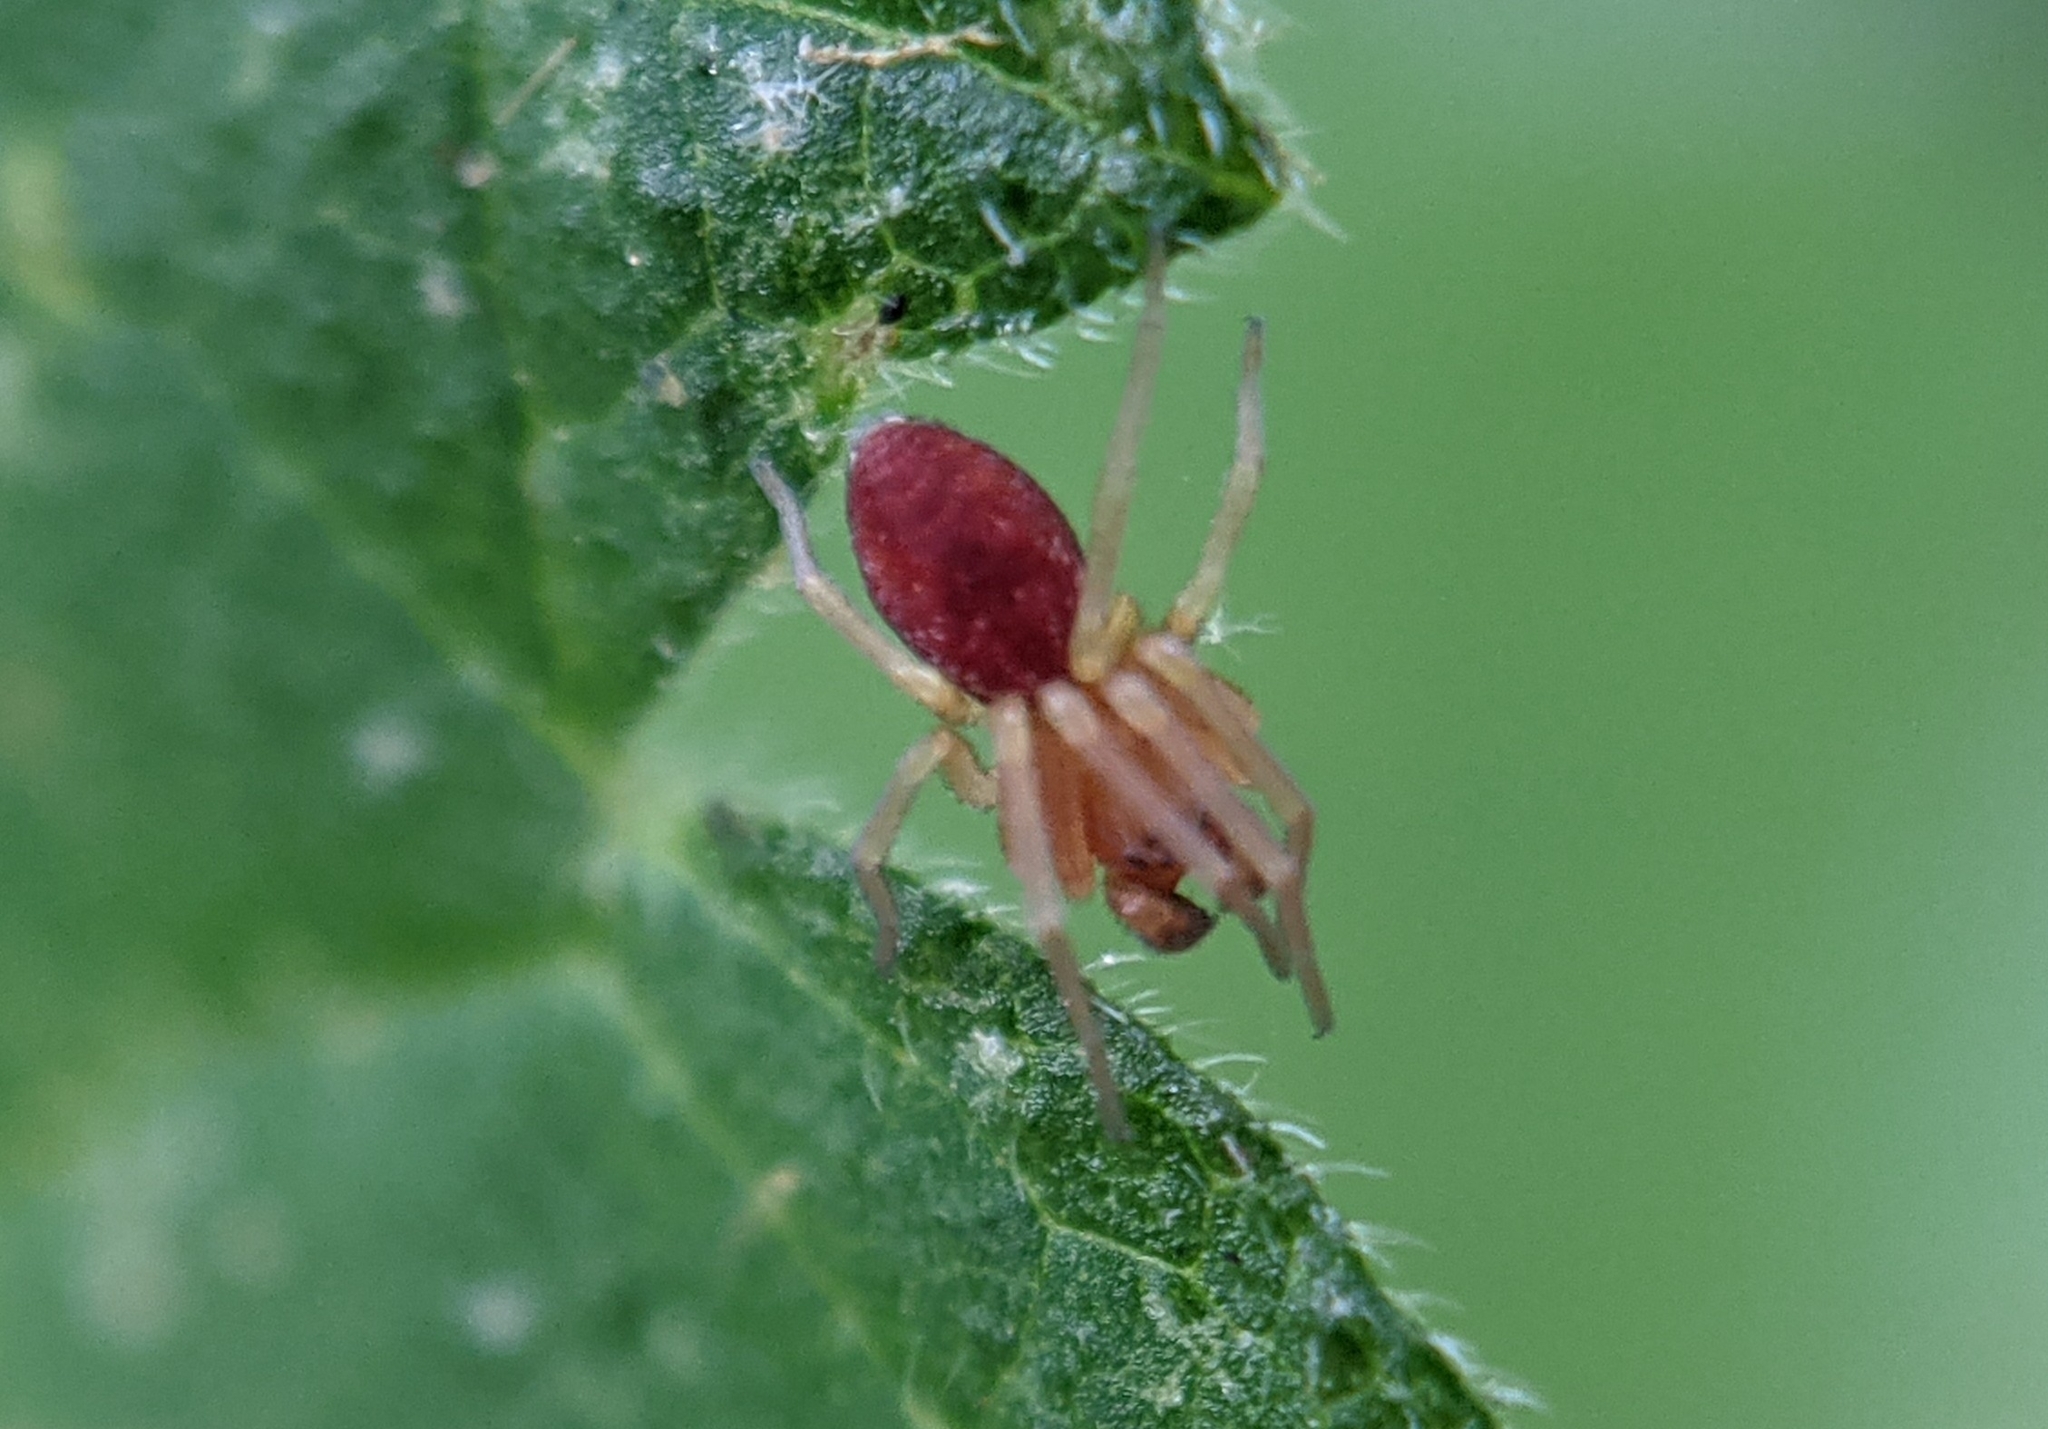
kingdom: Animalia
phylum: Arthropoda
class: Arachnida
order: Araneae
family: Dictynidae
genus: Nigma
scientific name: Nigma puella
